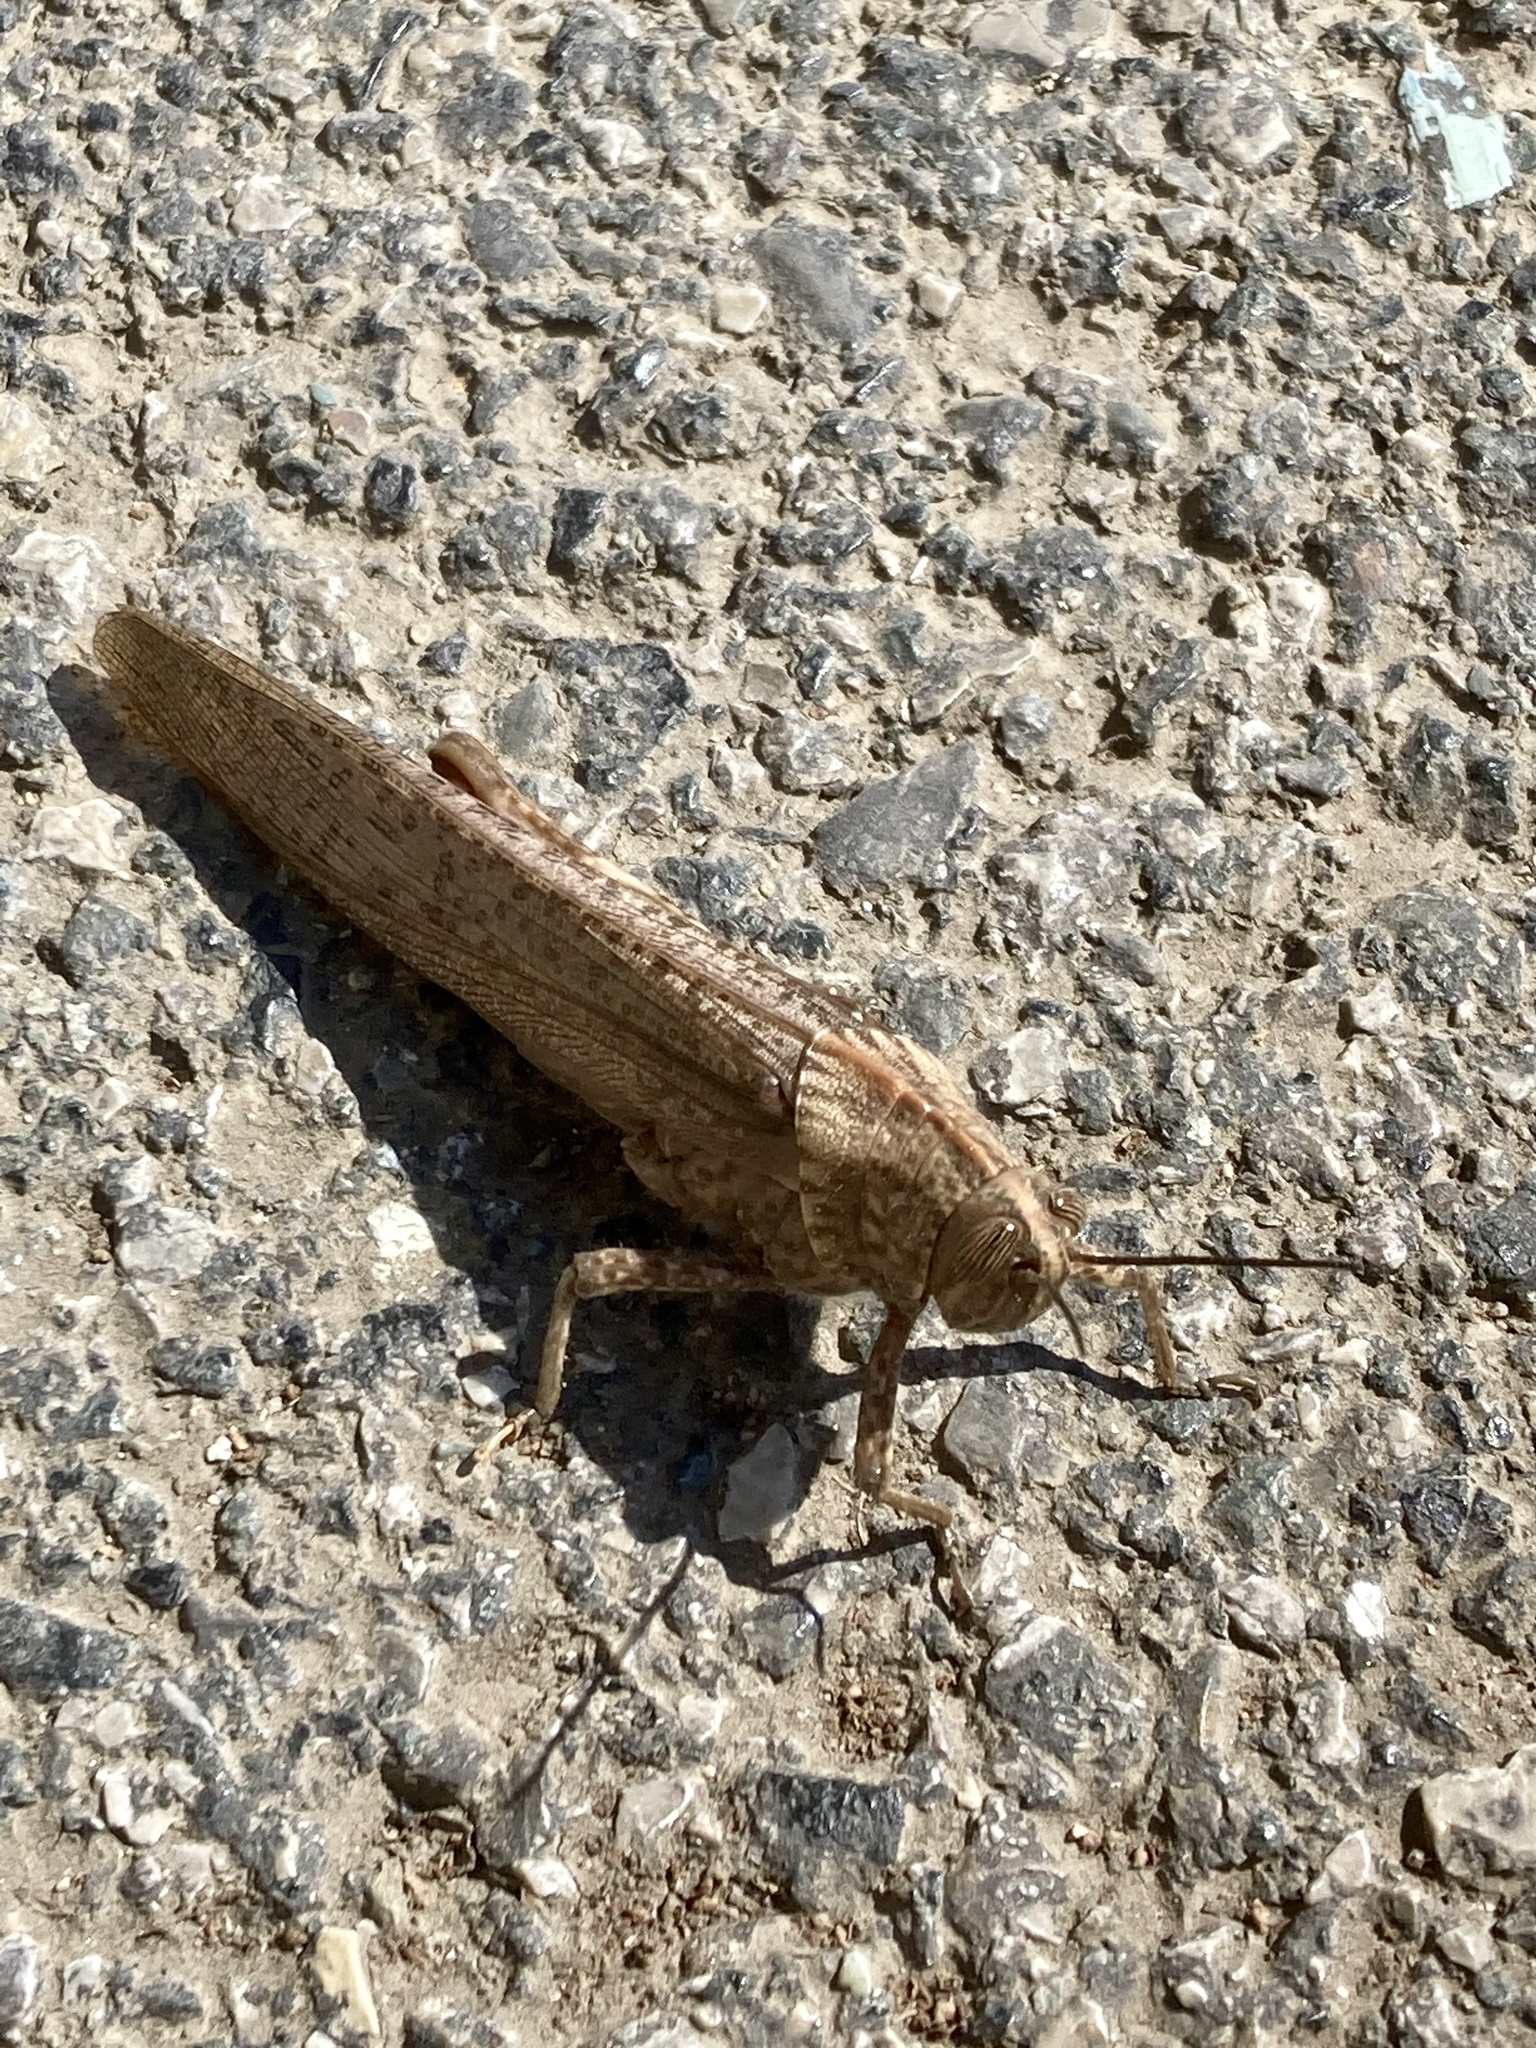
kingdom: Animalia
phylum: Arthropoda
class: Insecta
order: Orthoptera
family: Acrididae
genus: Anacridium
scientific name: Anacridium aegyptium
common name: Egyptian grasshopper
